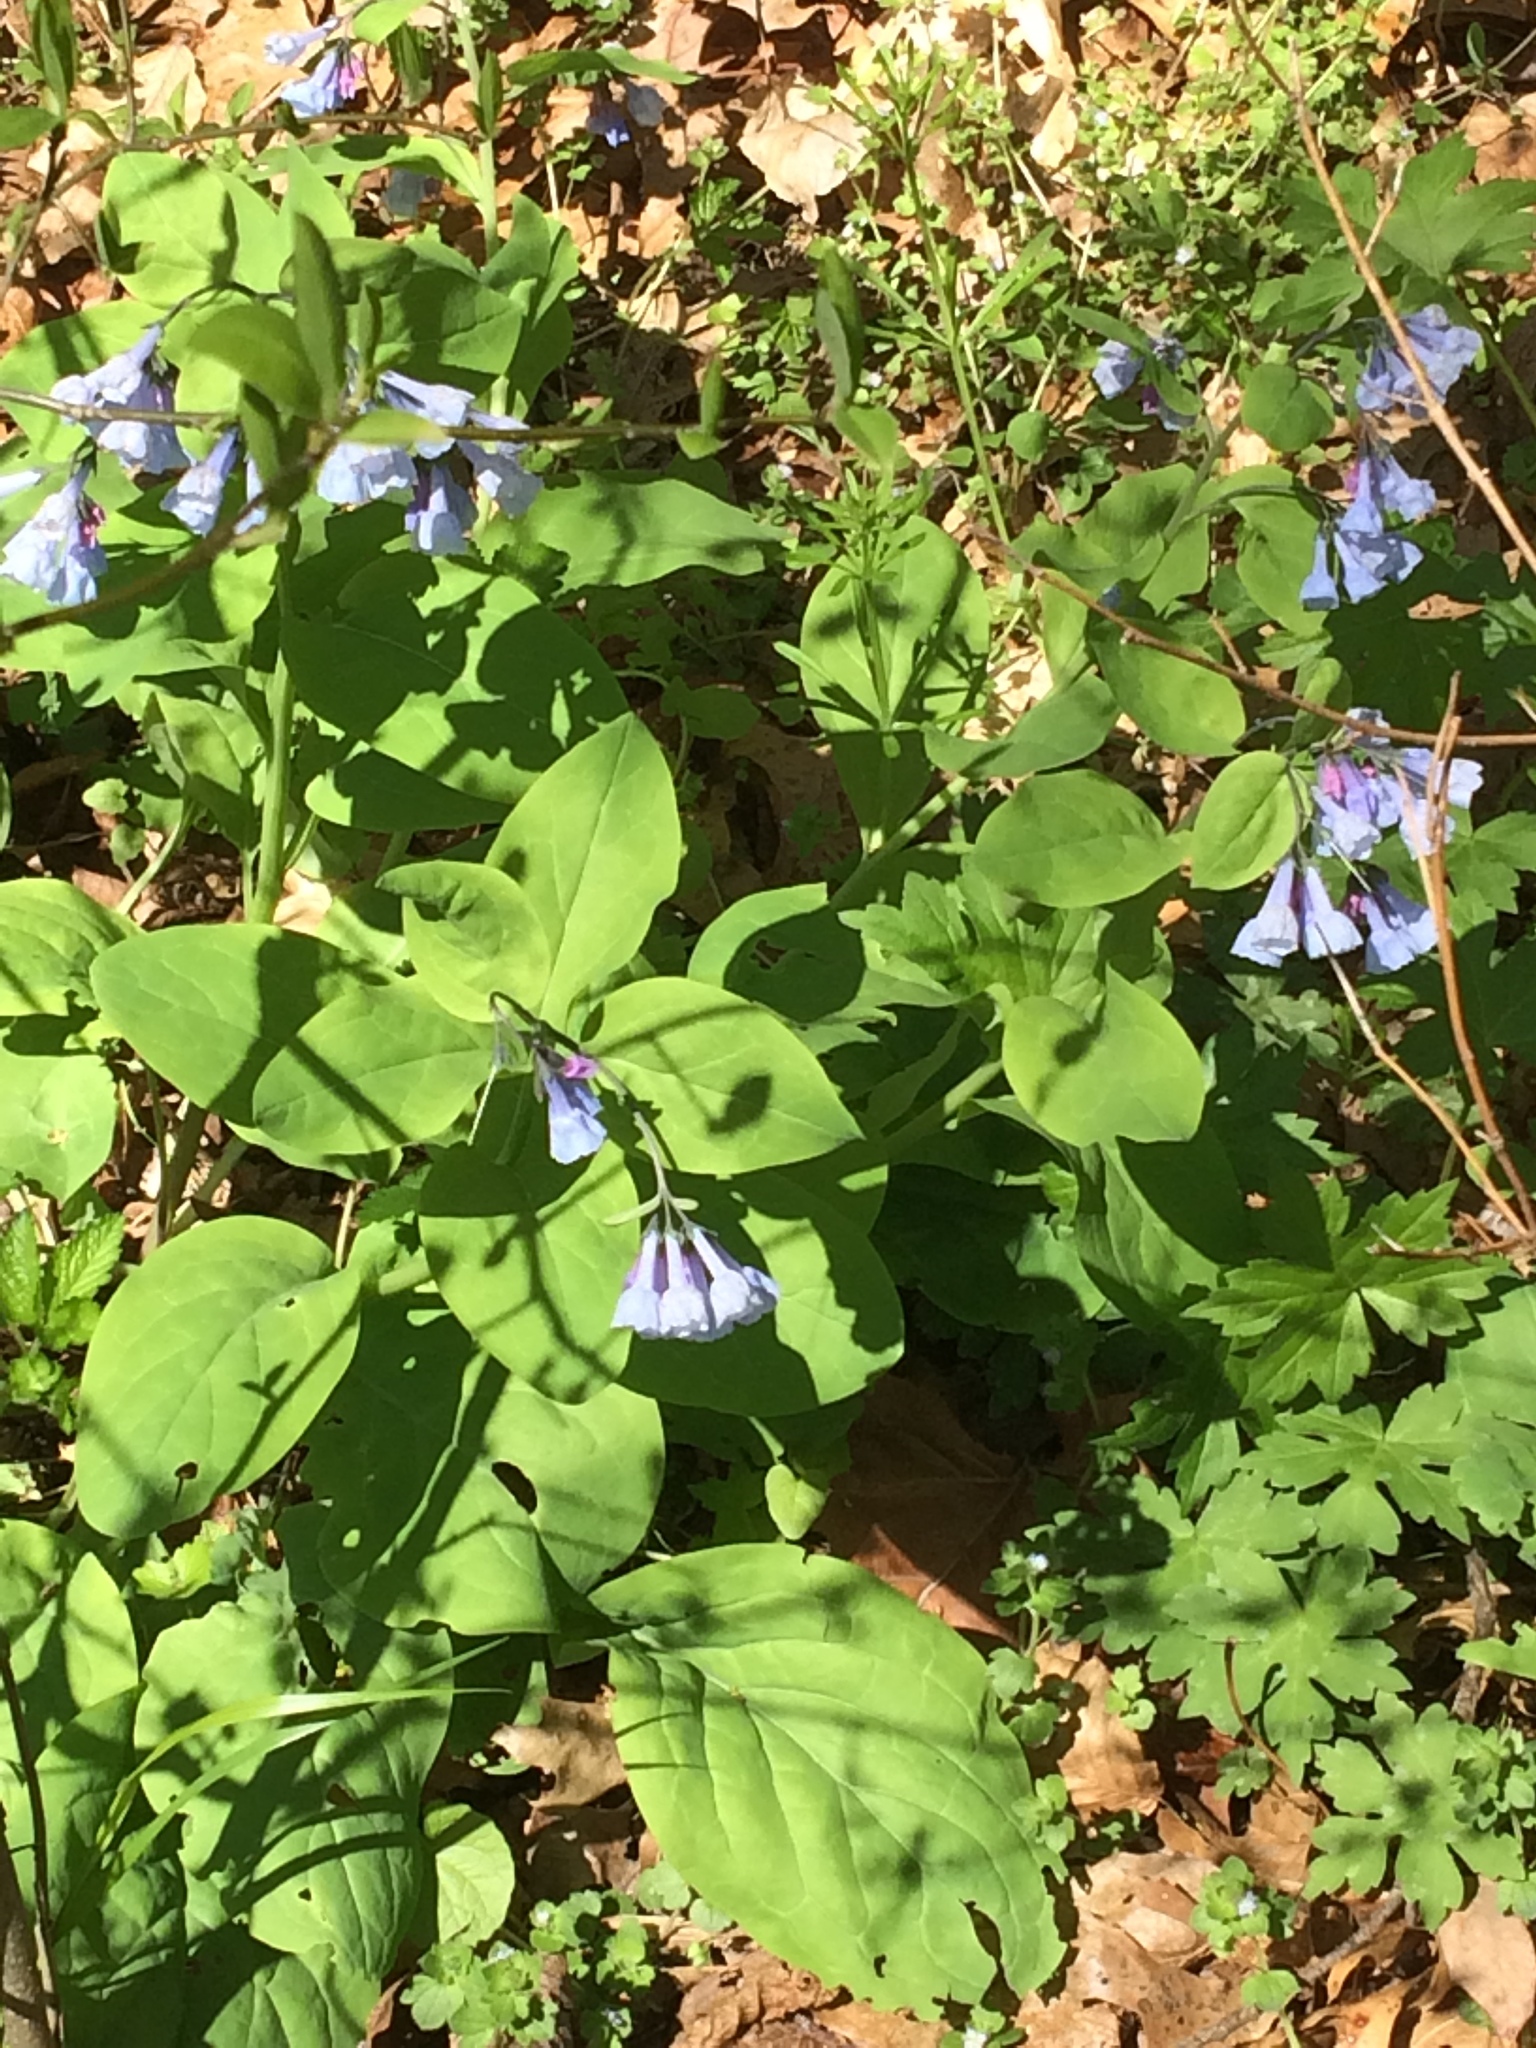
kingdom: Plantae
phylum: Tracheophyta
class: Magnoliopsida
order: Boraginales
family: Boraginaceae
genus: Mertensia
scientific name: Mertensia virginica
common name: Virginia bluebells
